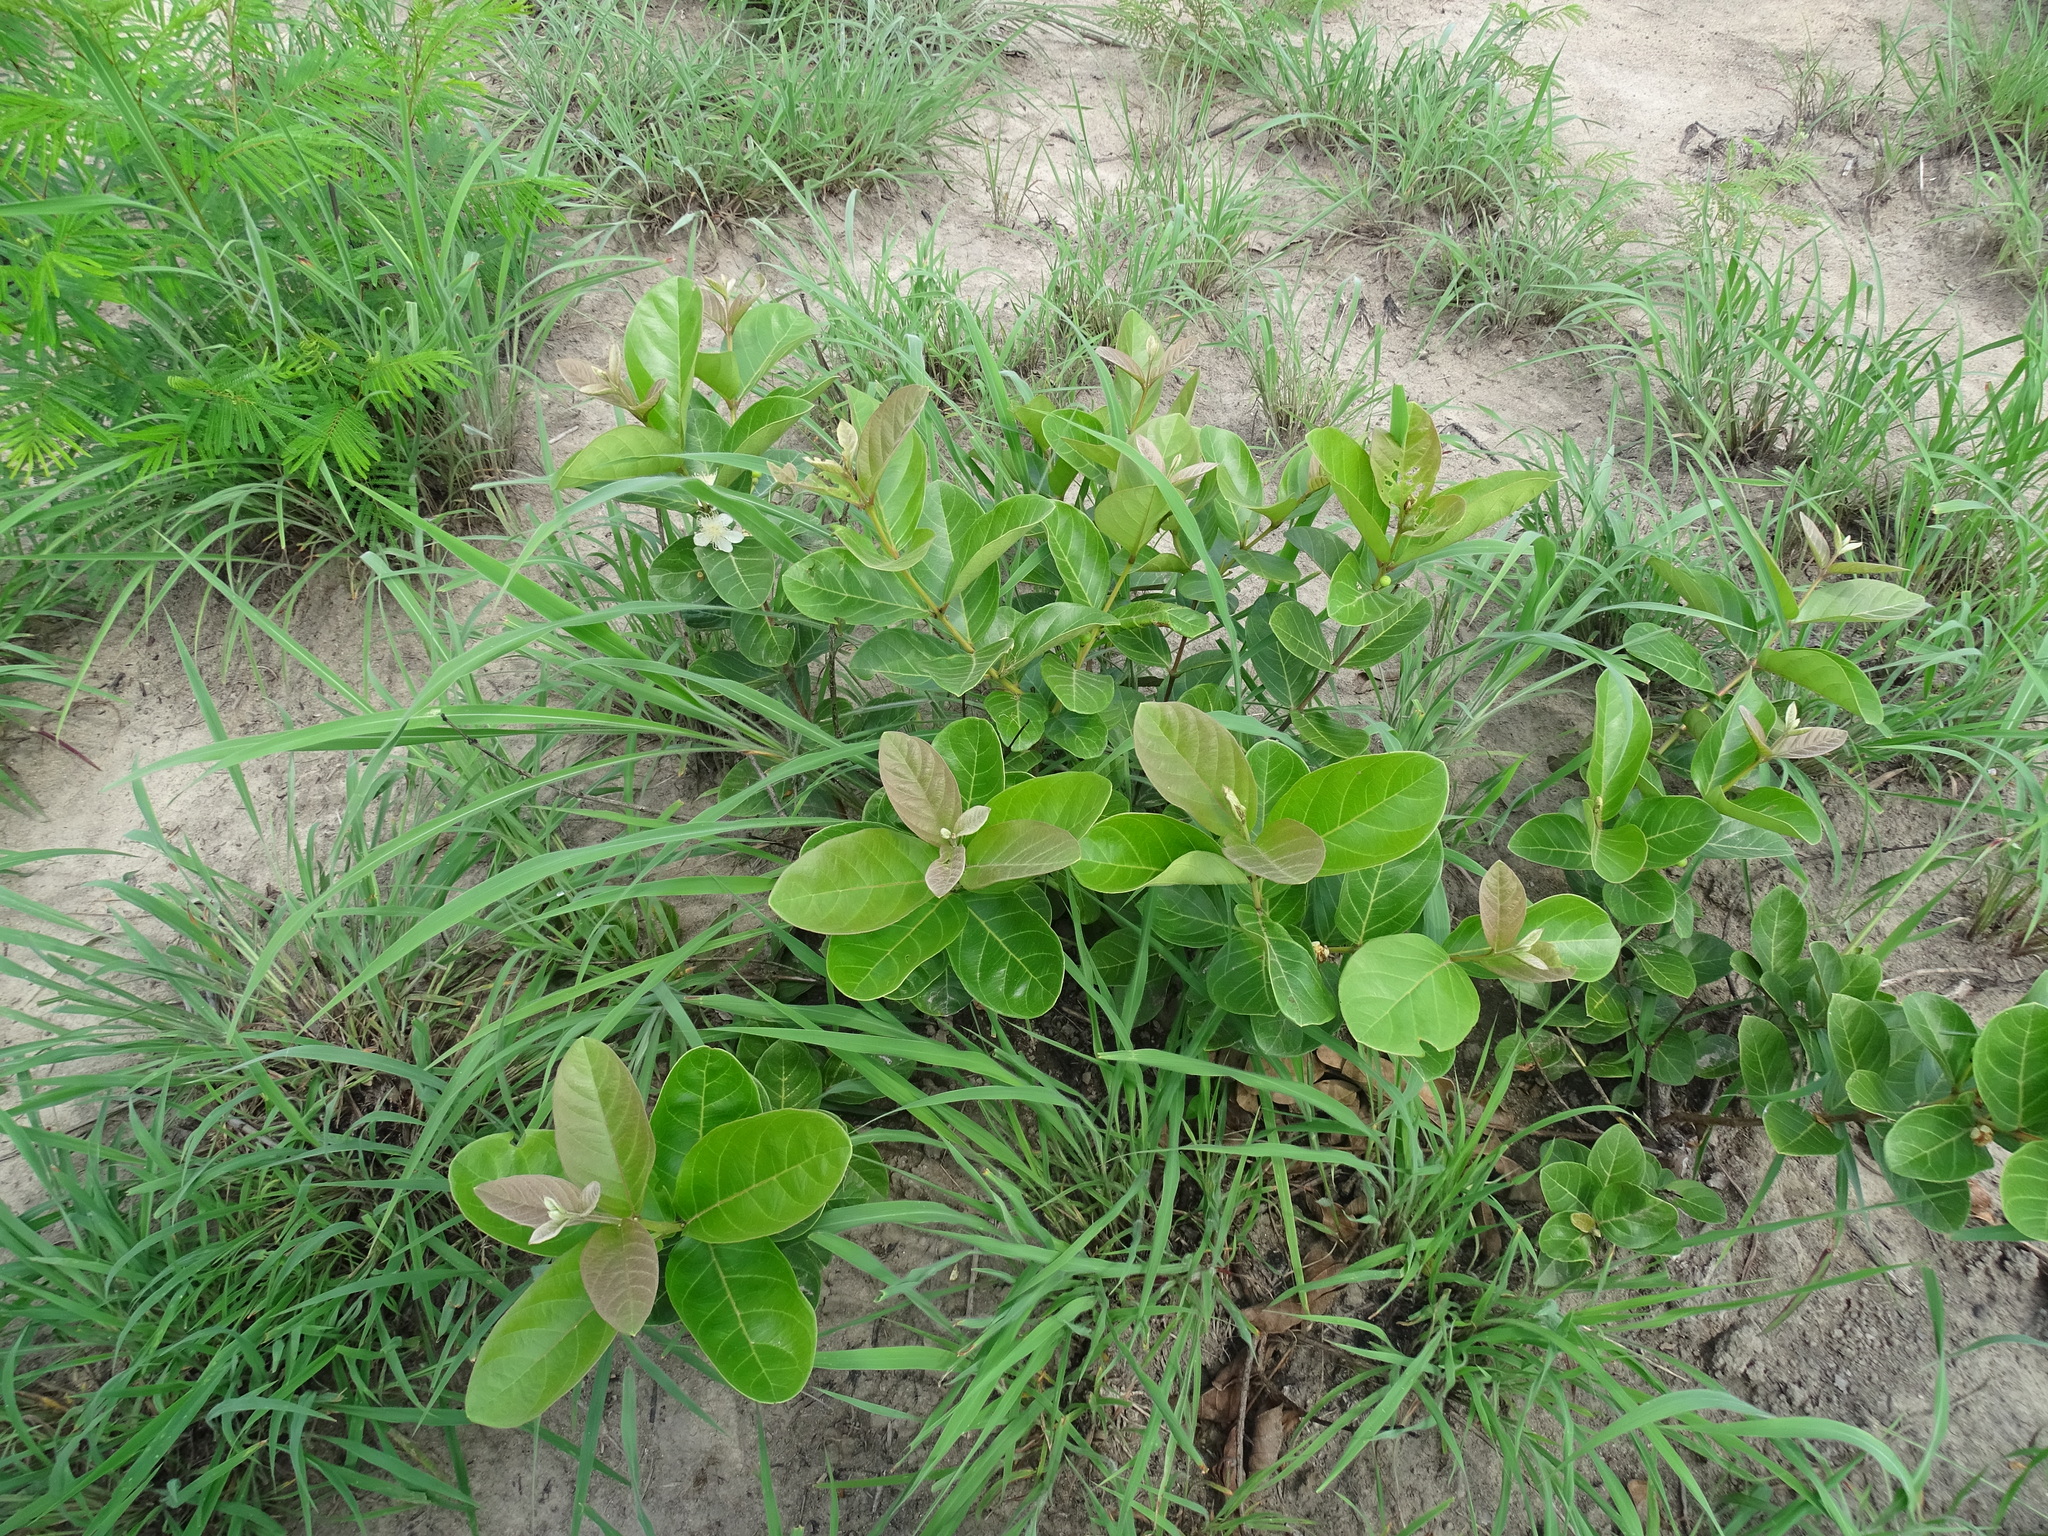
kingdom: Plantae
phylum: Tracheophyta
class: Magnoliopsida
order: Myrtales
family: Myrtaceae
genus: Psidium
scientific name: Psidium guineense
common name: Brazilian guava
